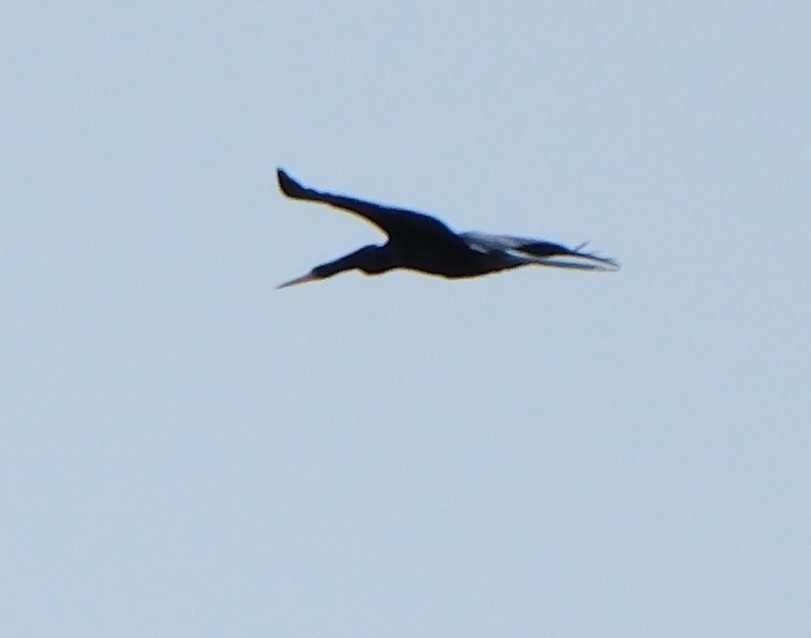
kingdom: Animalia
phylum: Chordata
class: Aves
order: Suliformes
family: Anhingidae
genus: Anhinga
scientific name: Anhinga anhinga
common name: Anhinga
